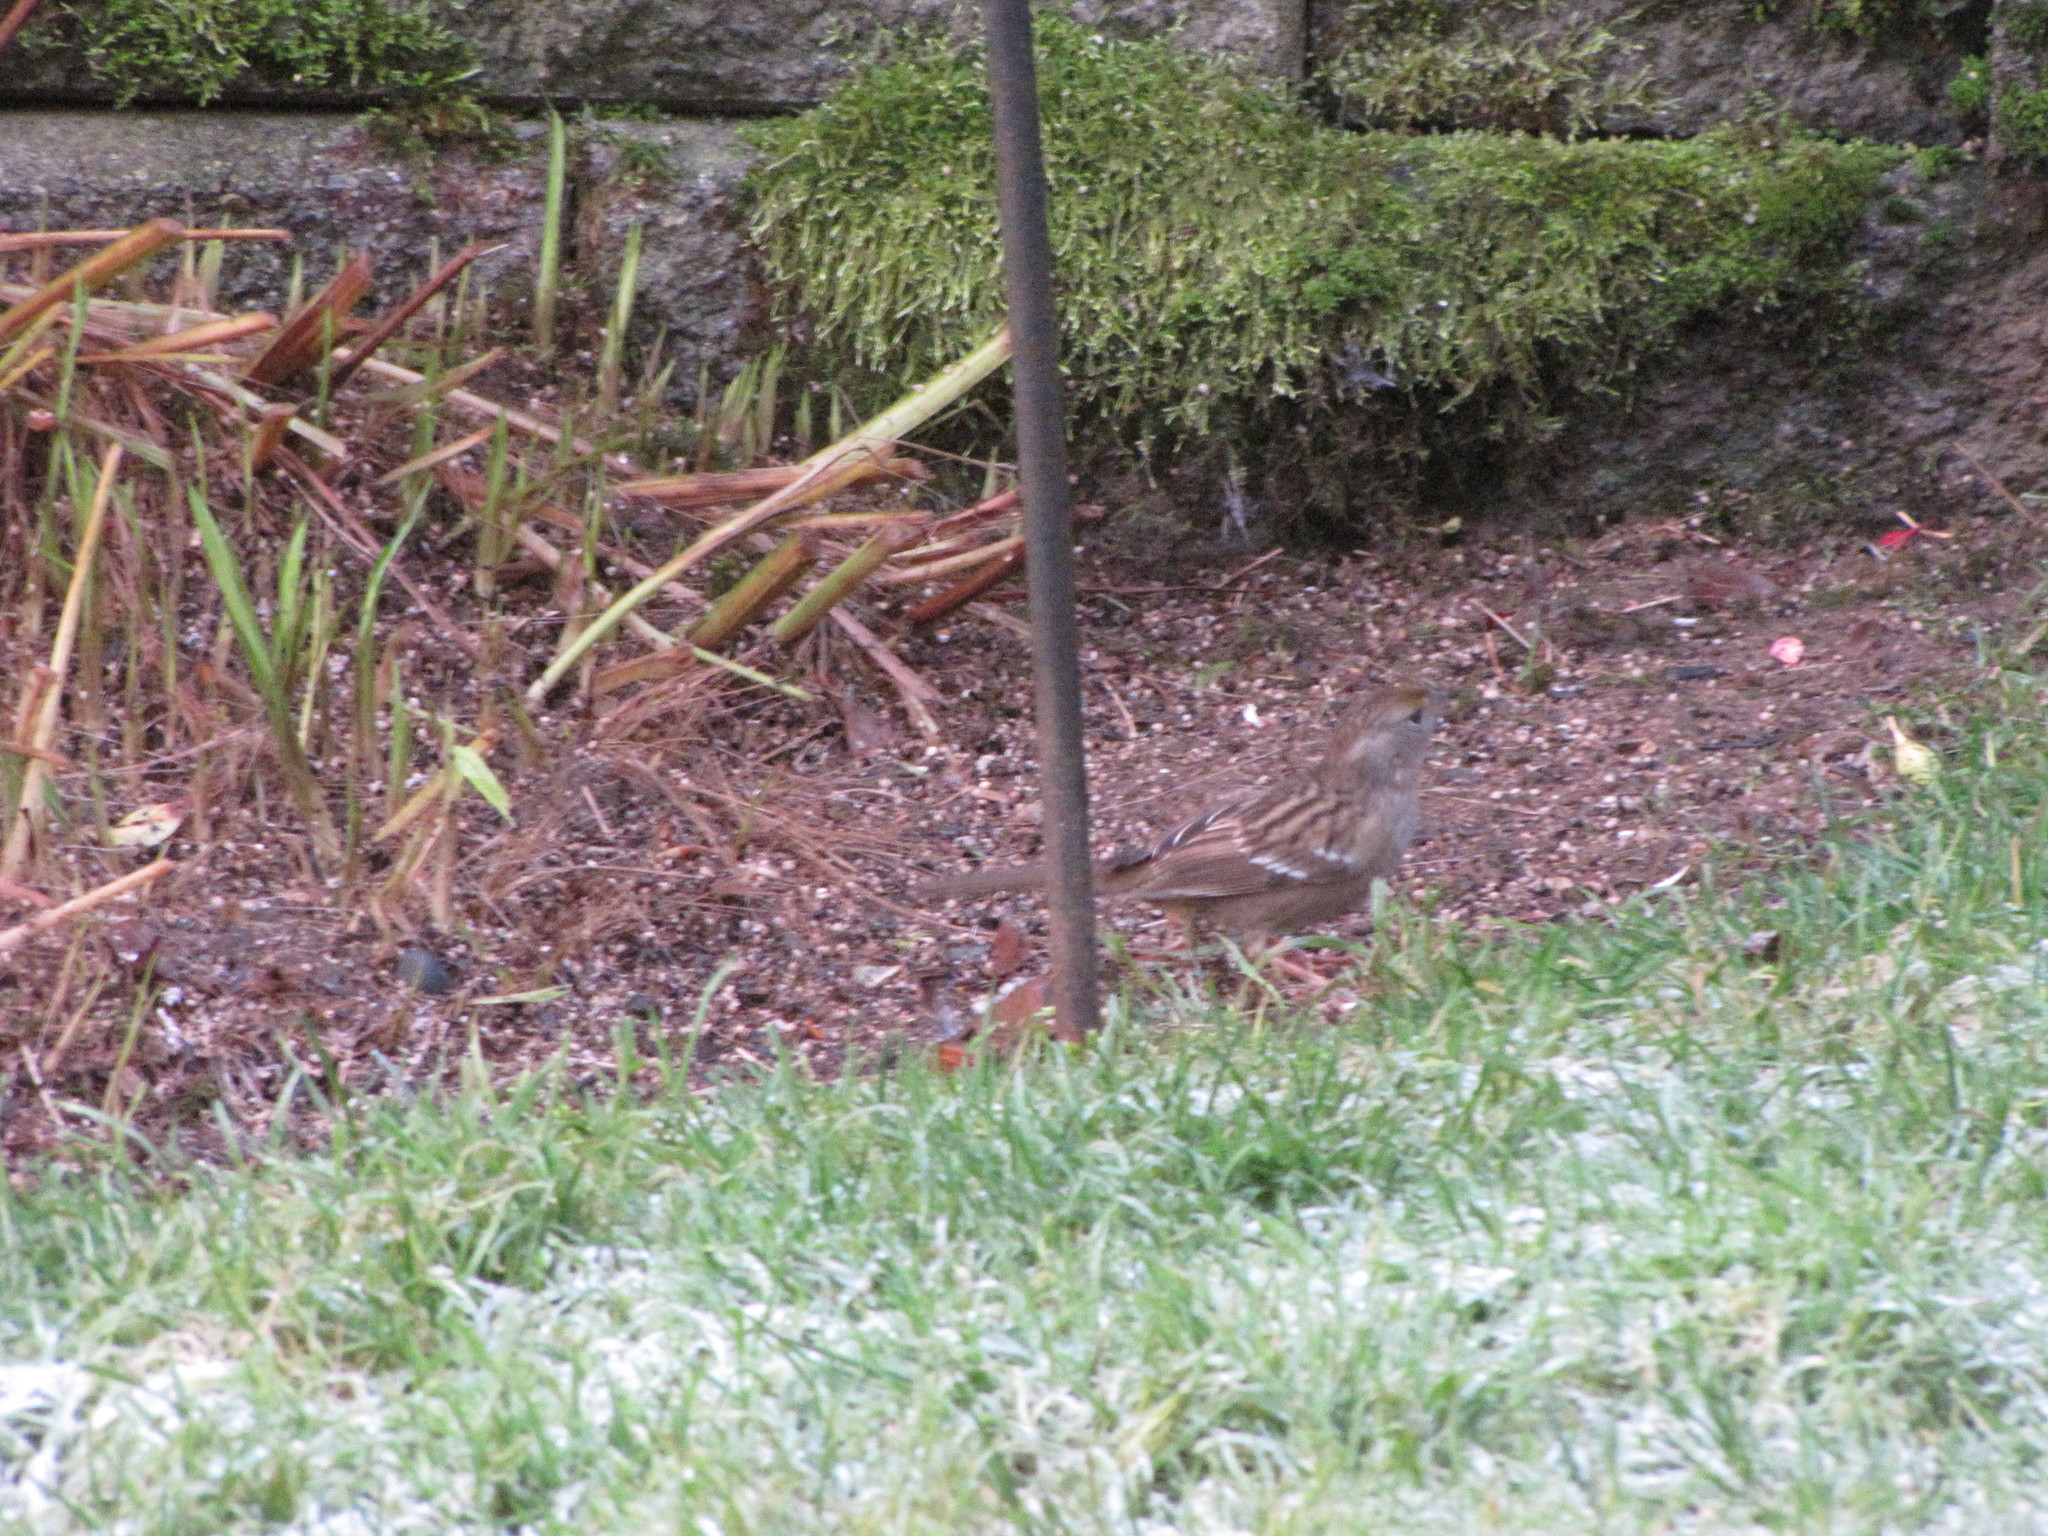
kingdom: Animalia
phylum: Chordata
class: Aves
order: Passeriformes
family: Passerellidae
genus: Zonotrichia
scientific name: Zonotrichia atricapilla
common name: Golden-crowned sparrow
